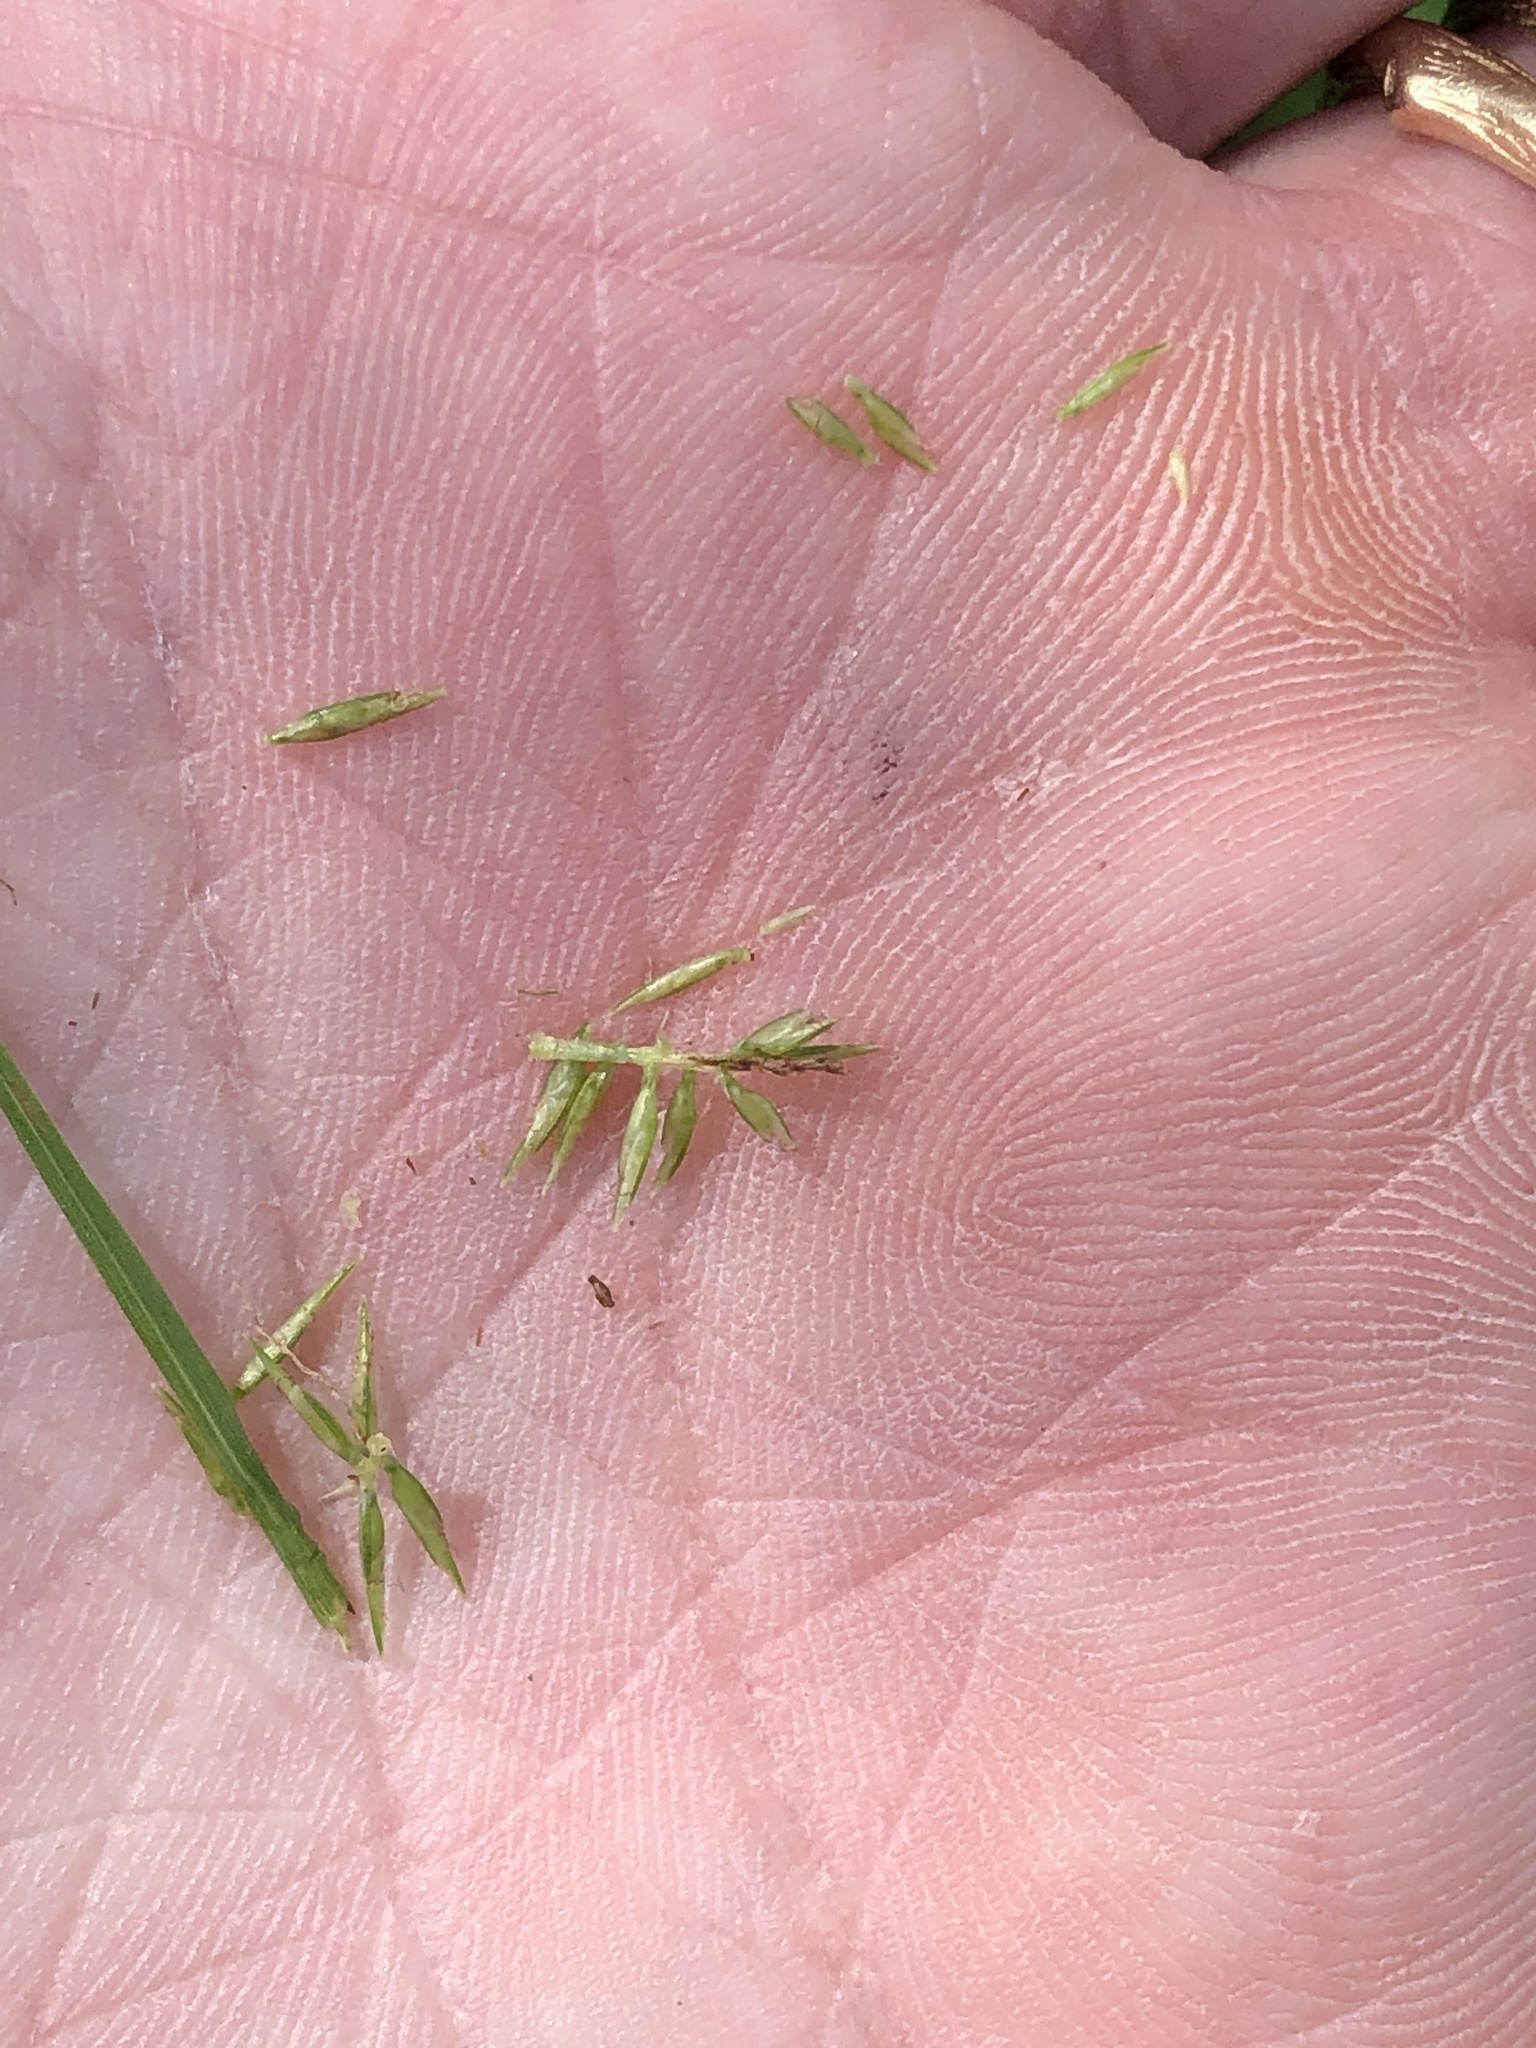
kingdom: Plantae
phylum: Tracheophyta
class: Liliopsida
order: Poales
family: Cyperaceae
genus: Cyperus
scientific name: Cyperus thyrsiflorus
